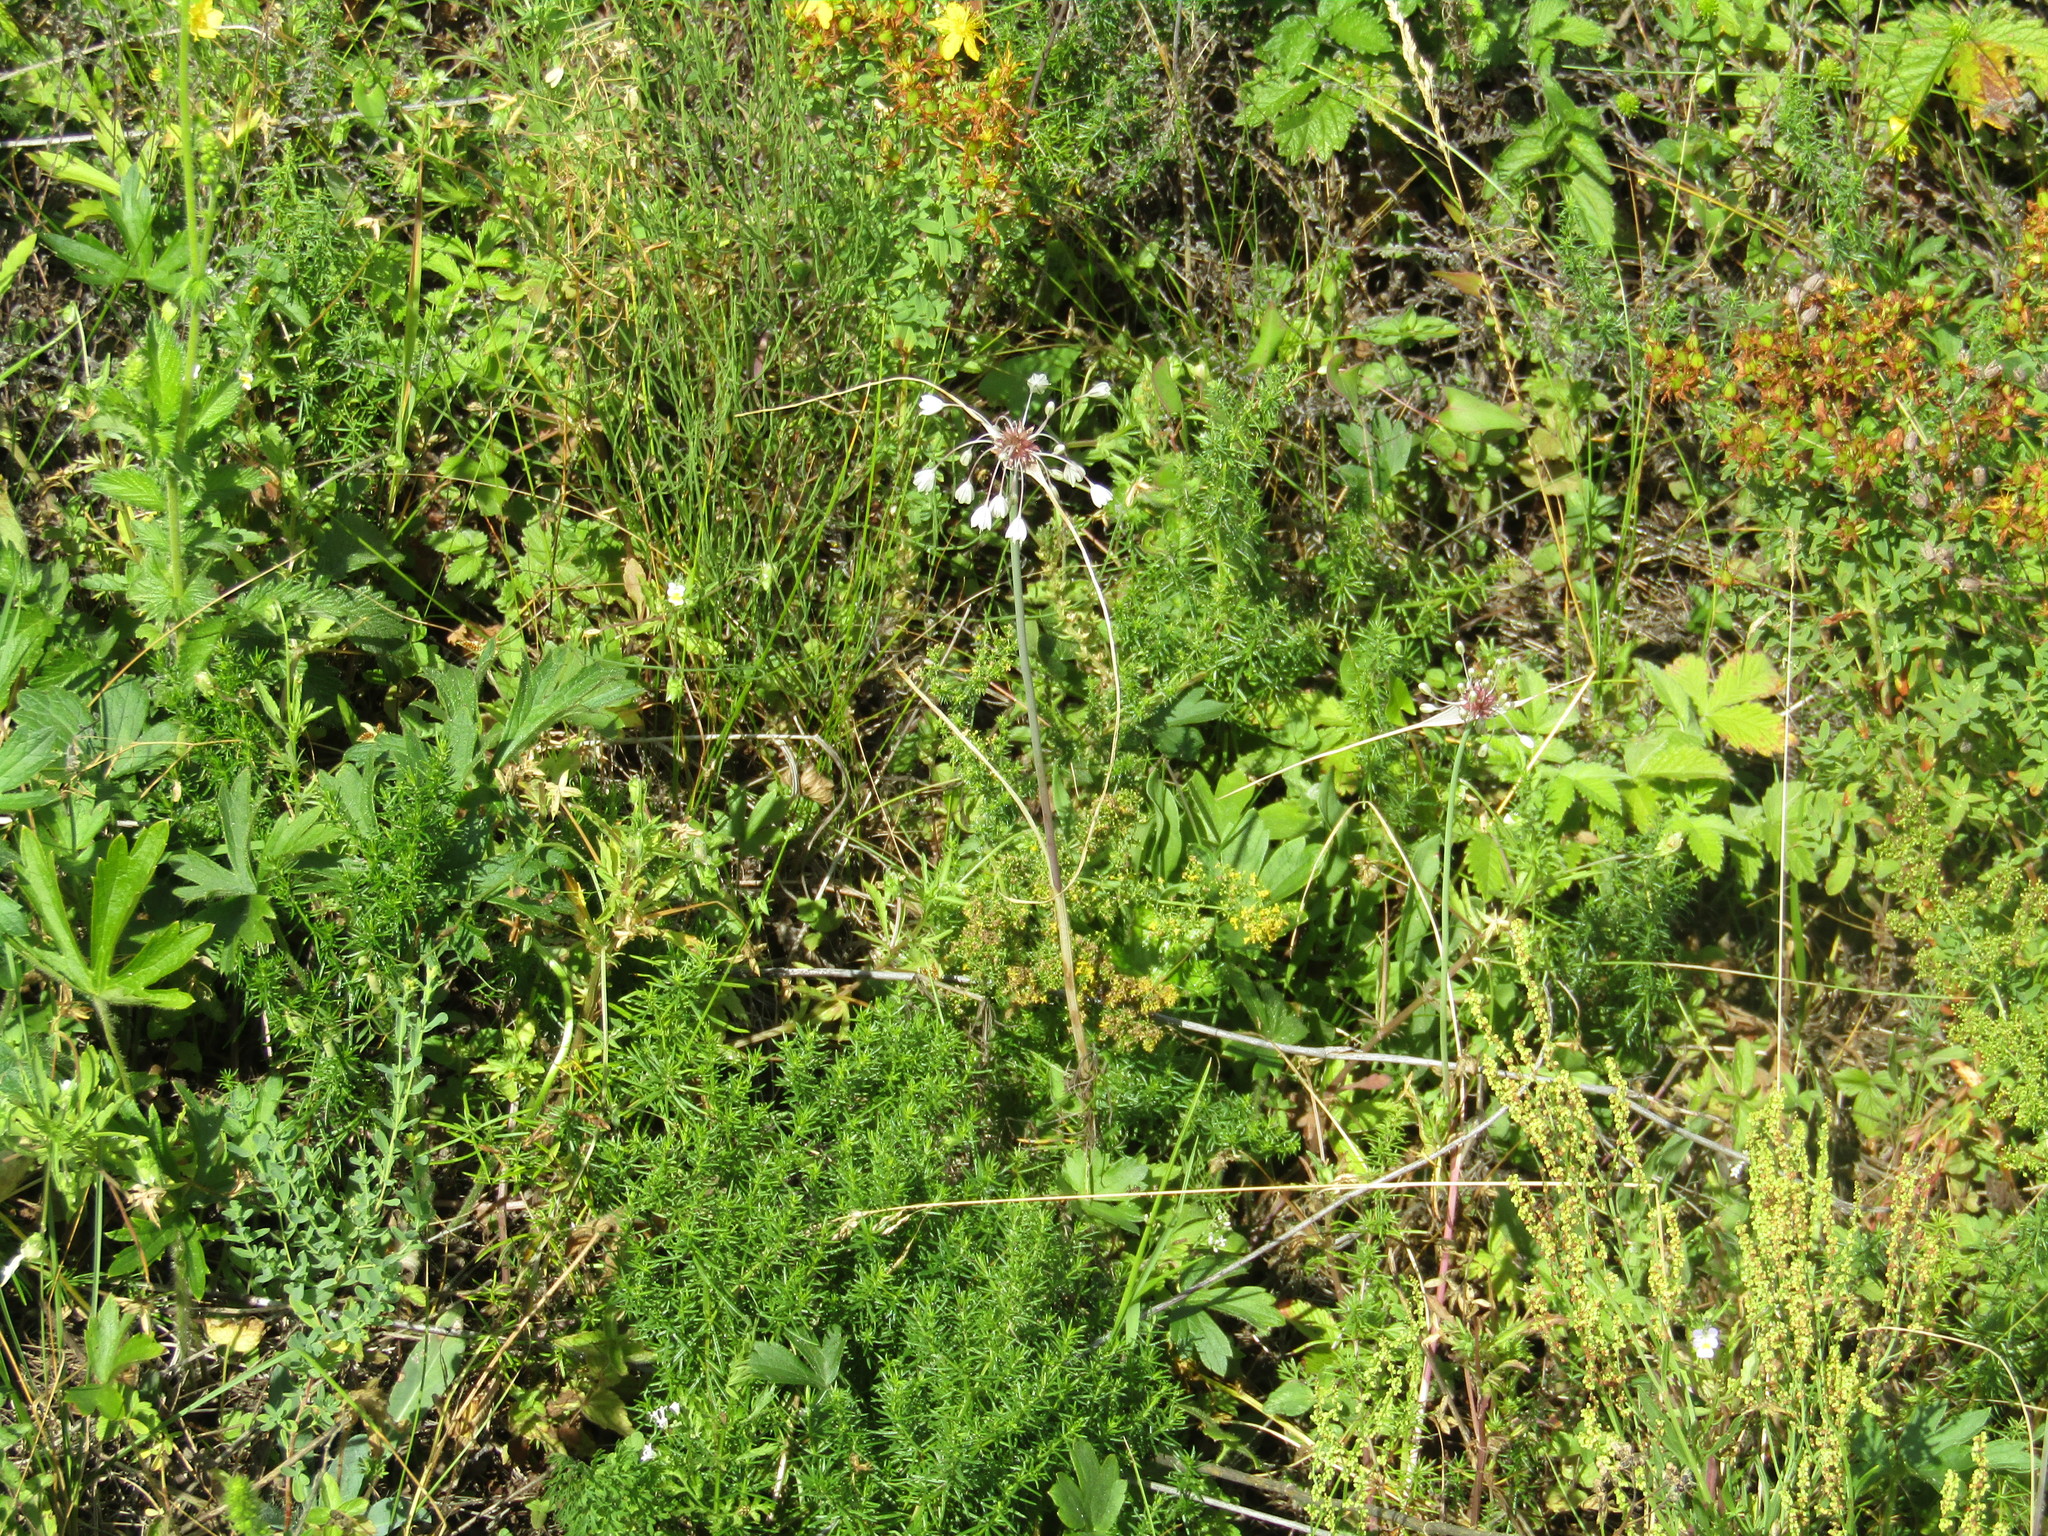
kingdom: Plantae
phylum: Tracheophyta
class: Liliopsida
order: Asparagales
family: Amaryllidaceae
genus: Allium
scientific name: Allium oleraceum
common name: Field garlic
